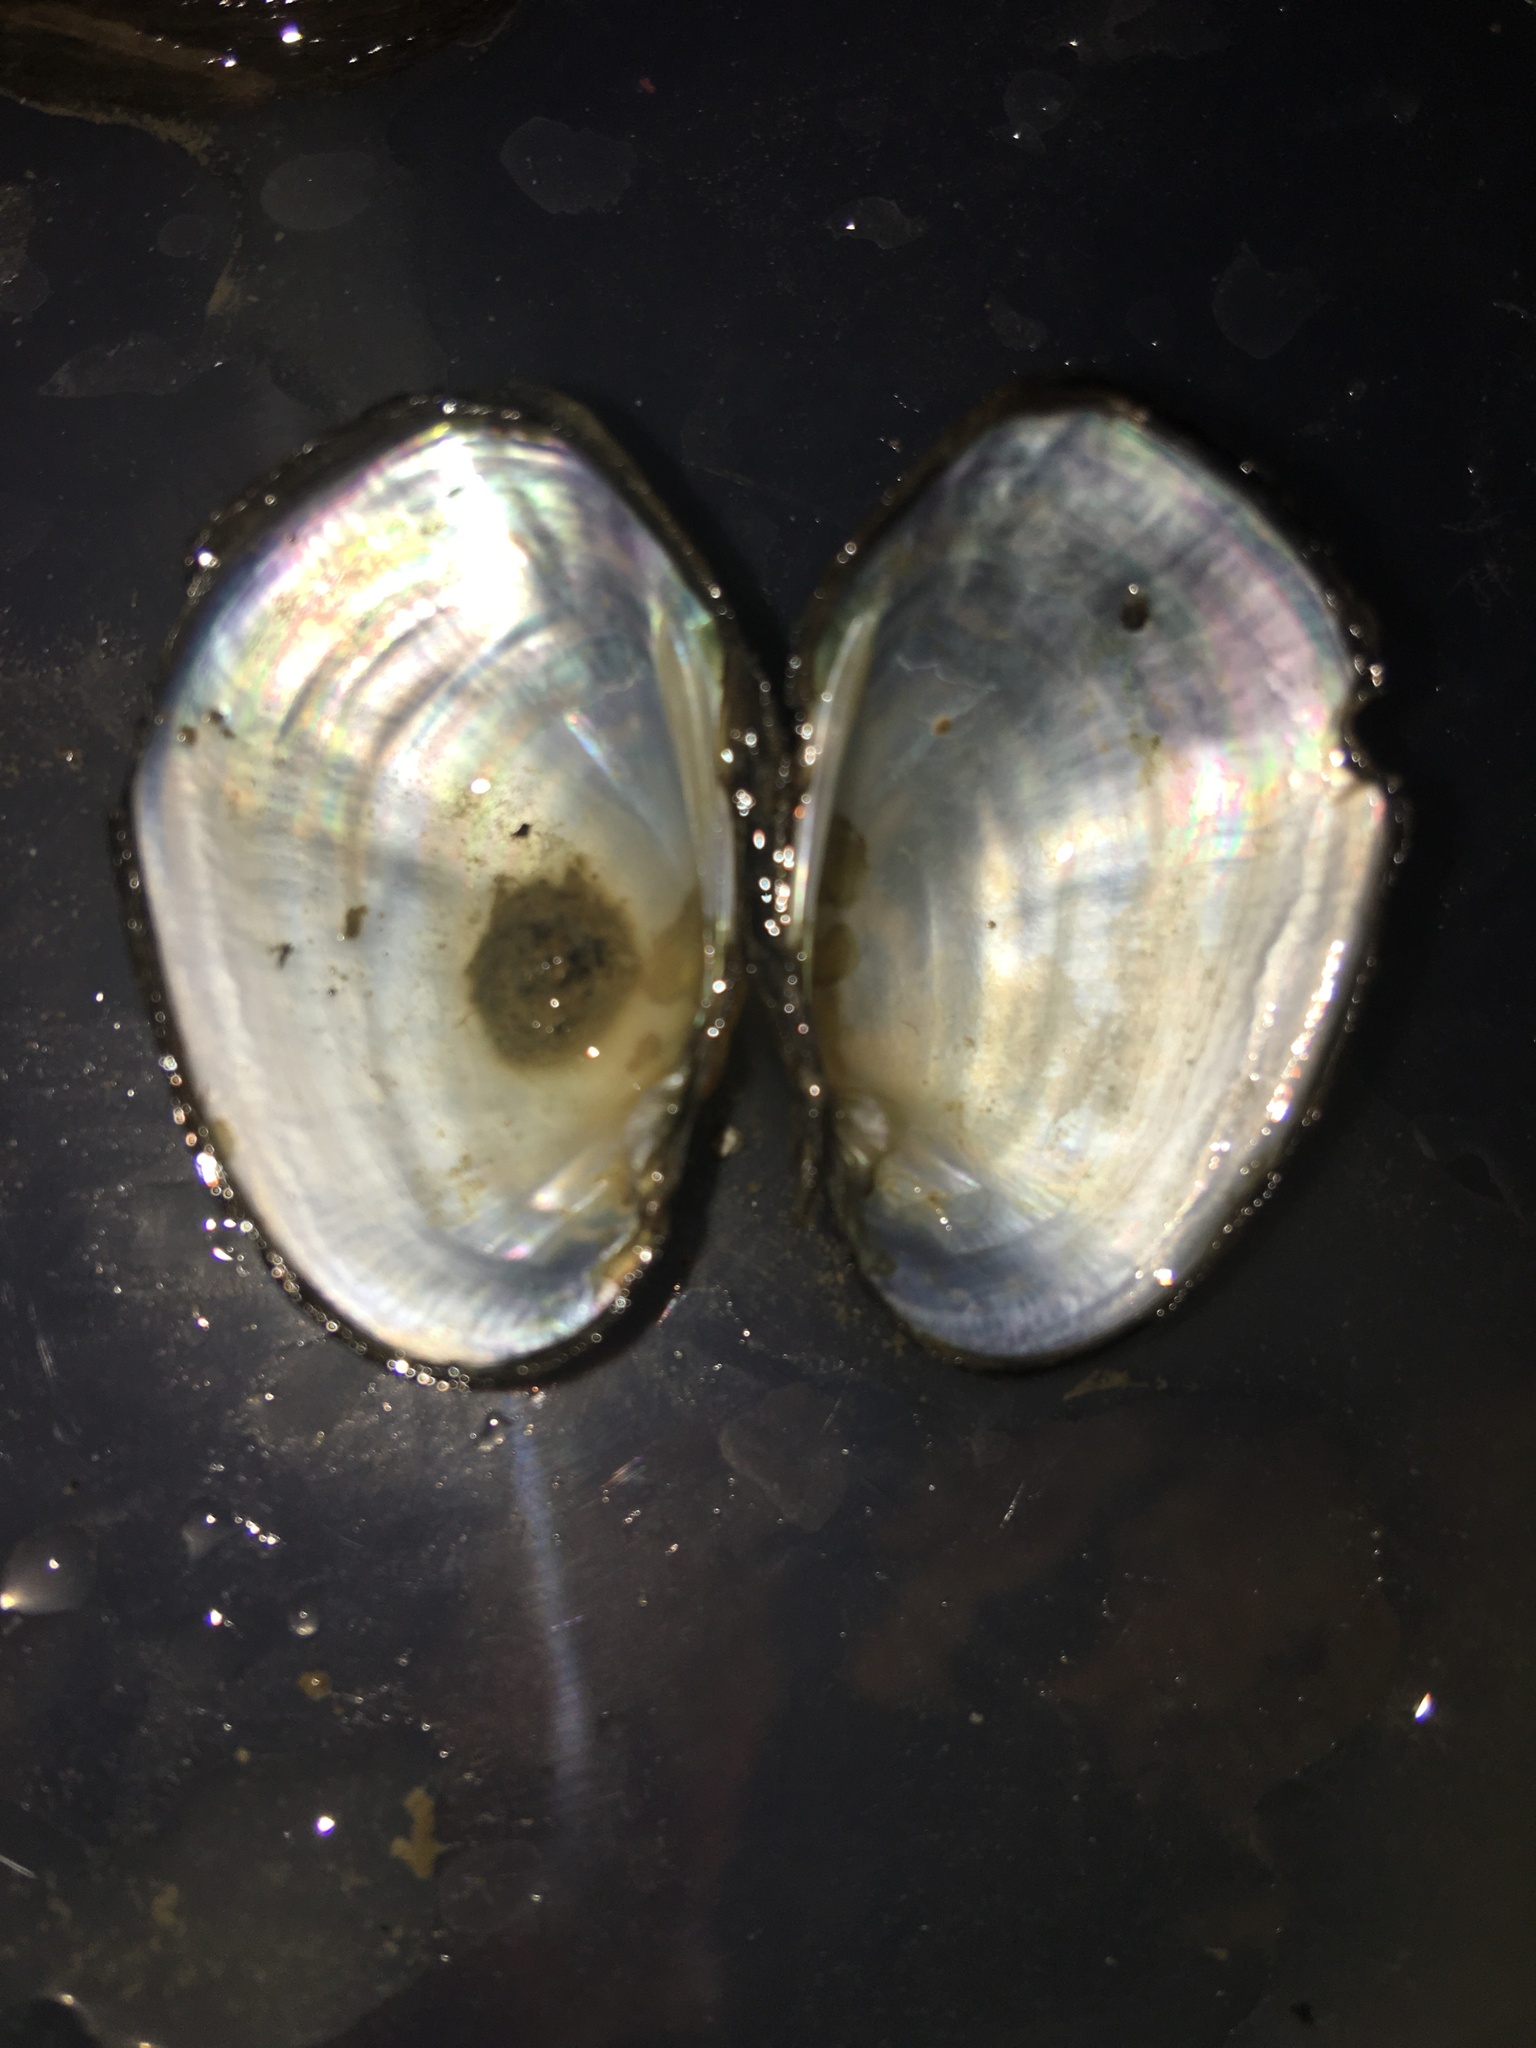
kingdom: Animalia
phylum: Mollusca
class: Bivalvia
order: Unionida
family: Unionidae
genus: Toxolasma
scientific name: Toxolasma texasiense
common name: Texas lilliput
